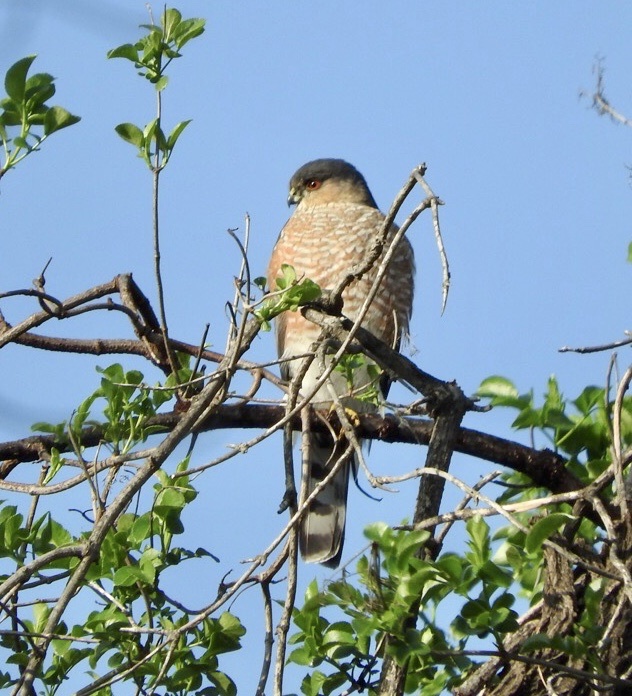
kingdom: Animalia
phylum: Chordata
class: Aves
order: Accipitriformes
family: Accipitridae
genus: Accipiter
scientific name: Accipiter striatus
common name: Sharp-shinned hawk
